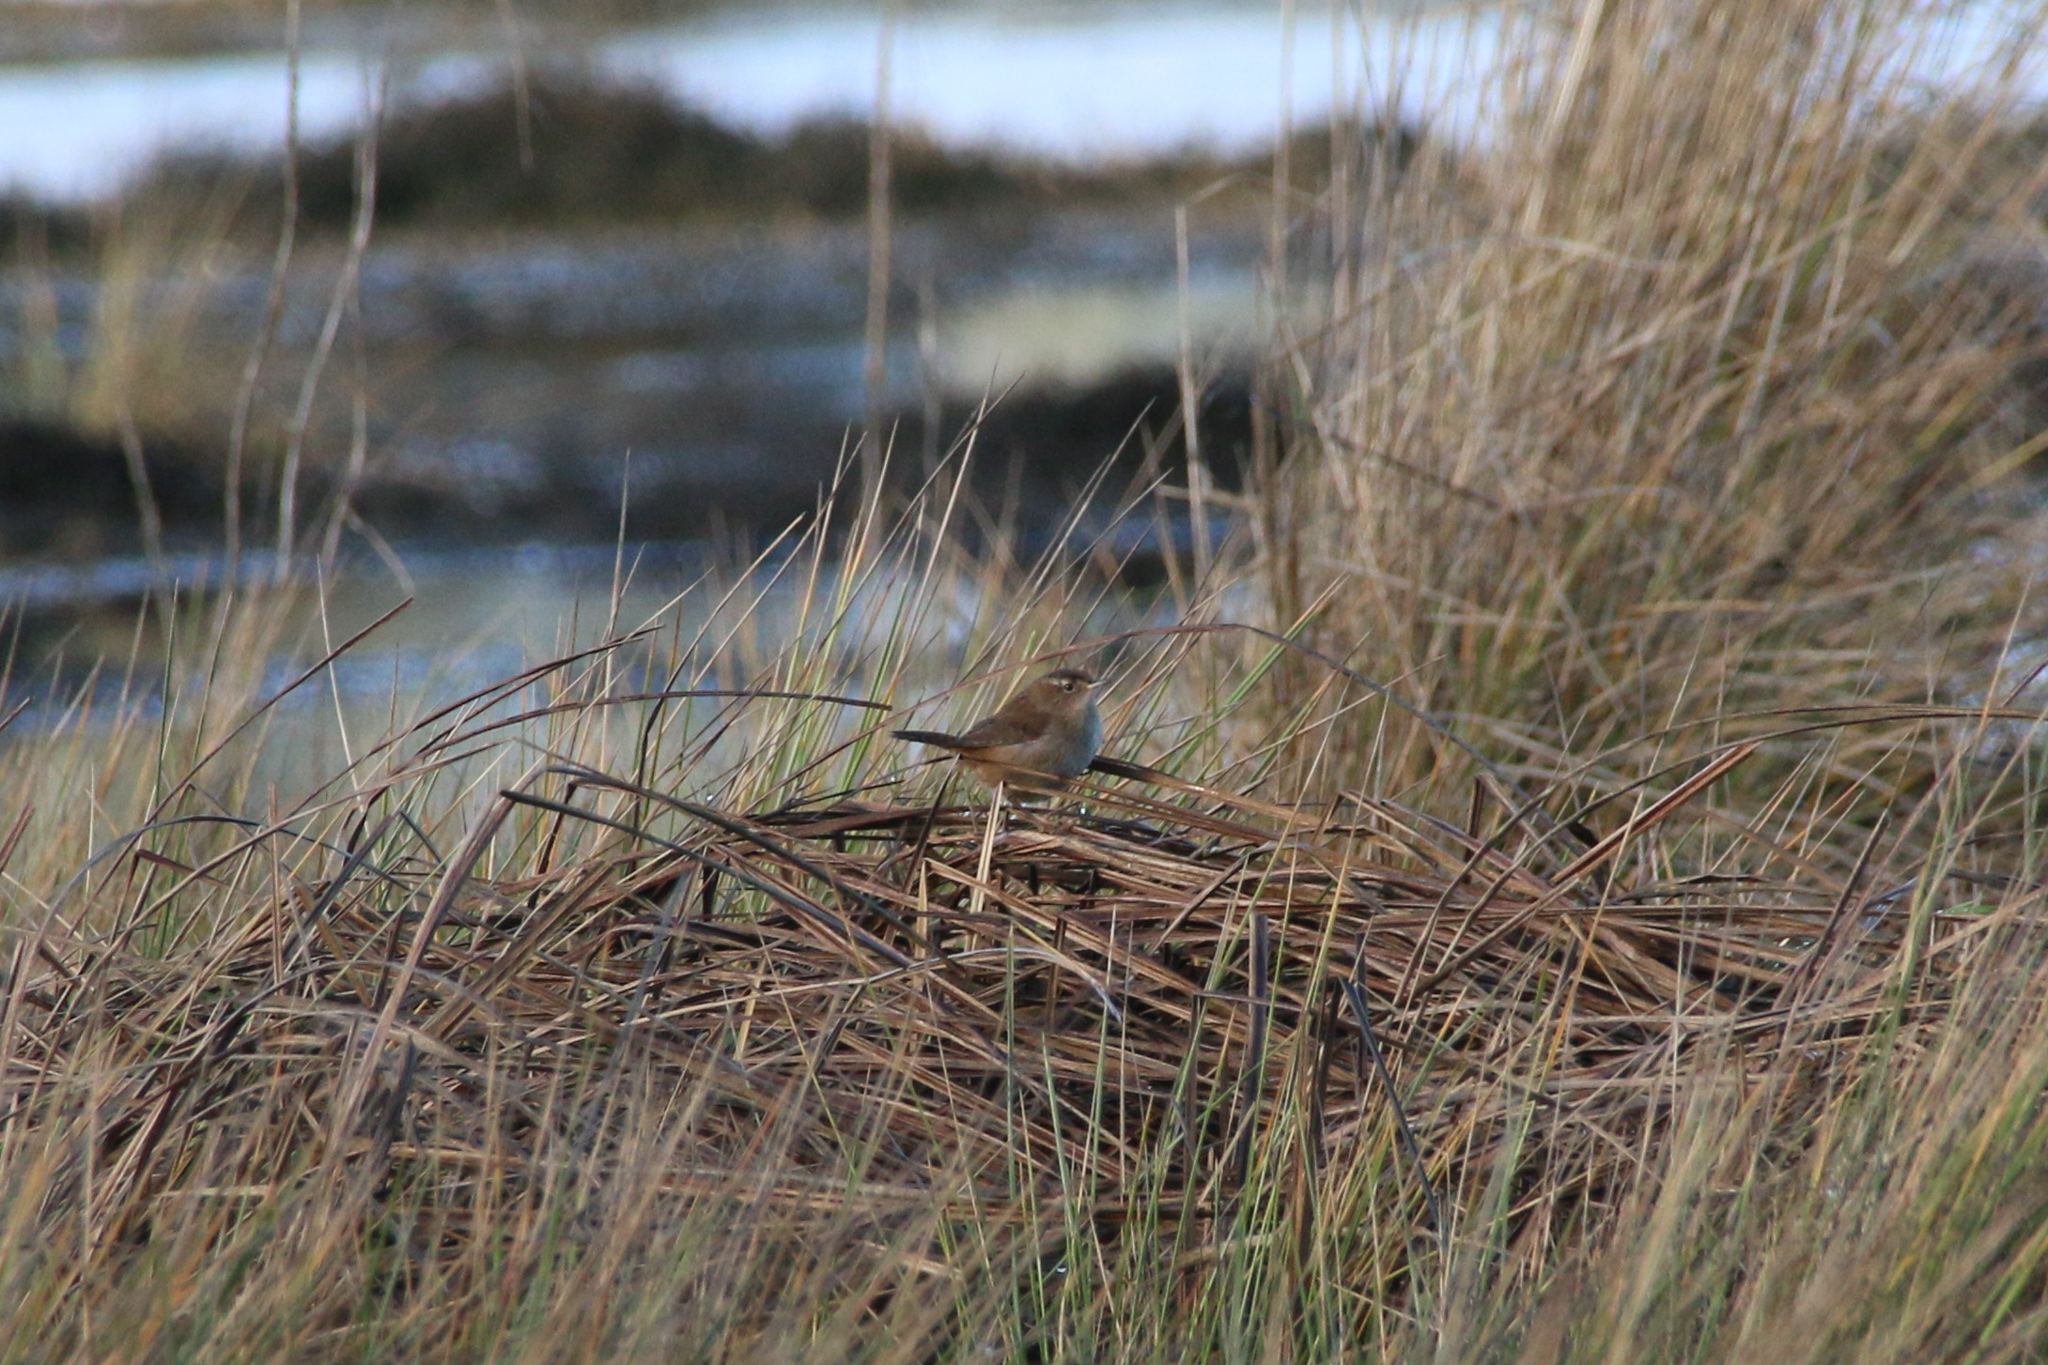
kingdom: Animalia
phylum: Chordata
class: Aves
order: Passeriformes
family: Troglodytidae
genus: Cistothorus
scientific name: Cistothorus palustris
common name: Marsh wren
